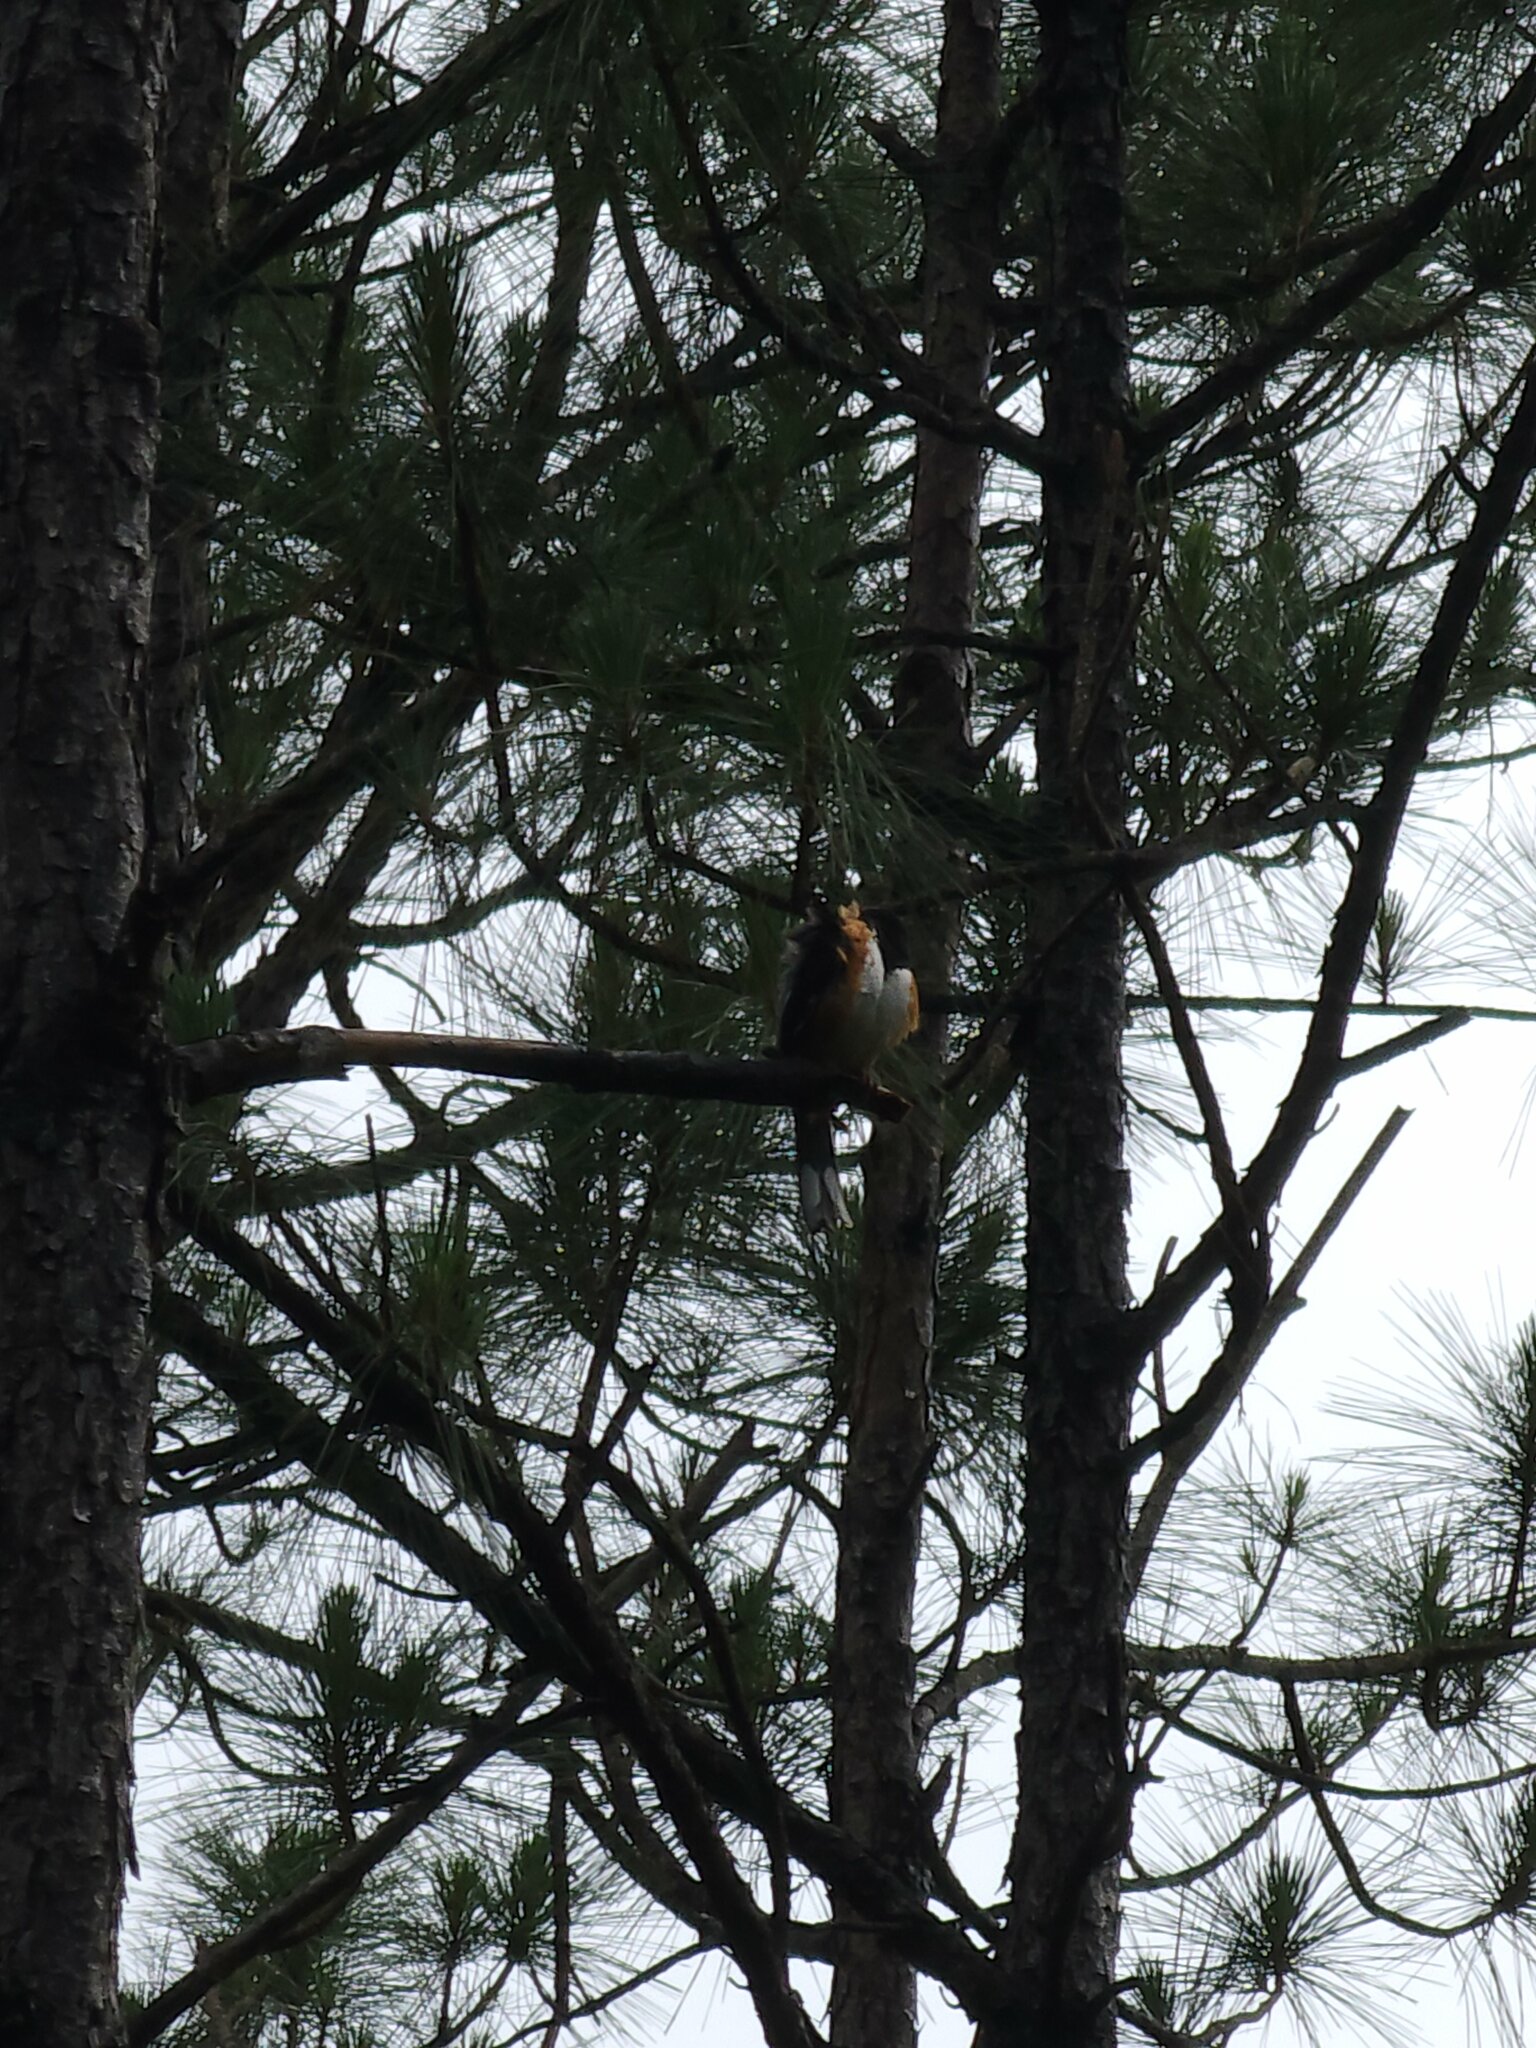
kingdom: Animalia
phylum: Chordata
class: Aves
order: Passeriformes
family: Passerellidae
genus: Pipilo
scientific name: Pipilo erythrophthalmus
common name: Eastern towhee
